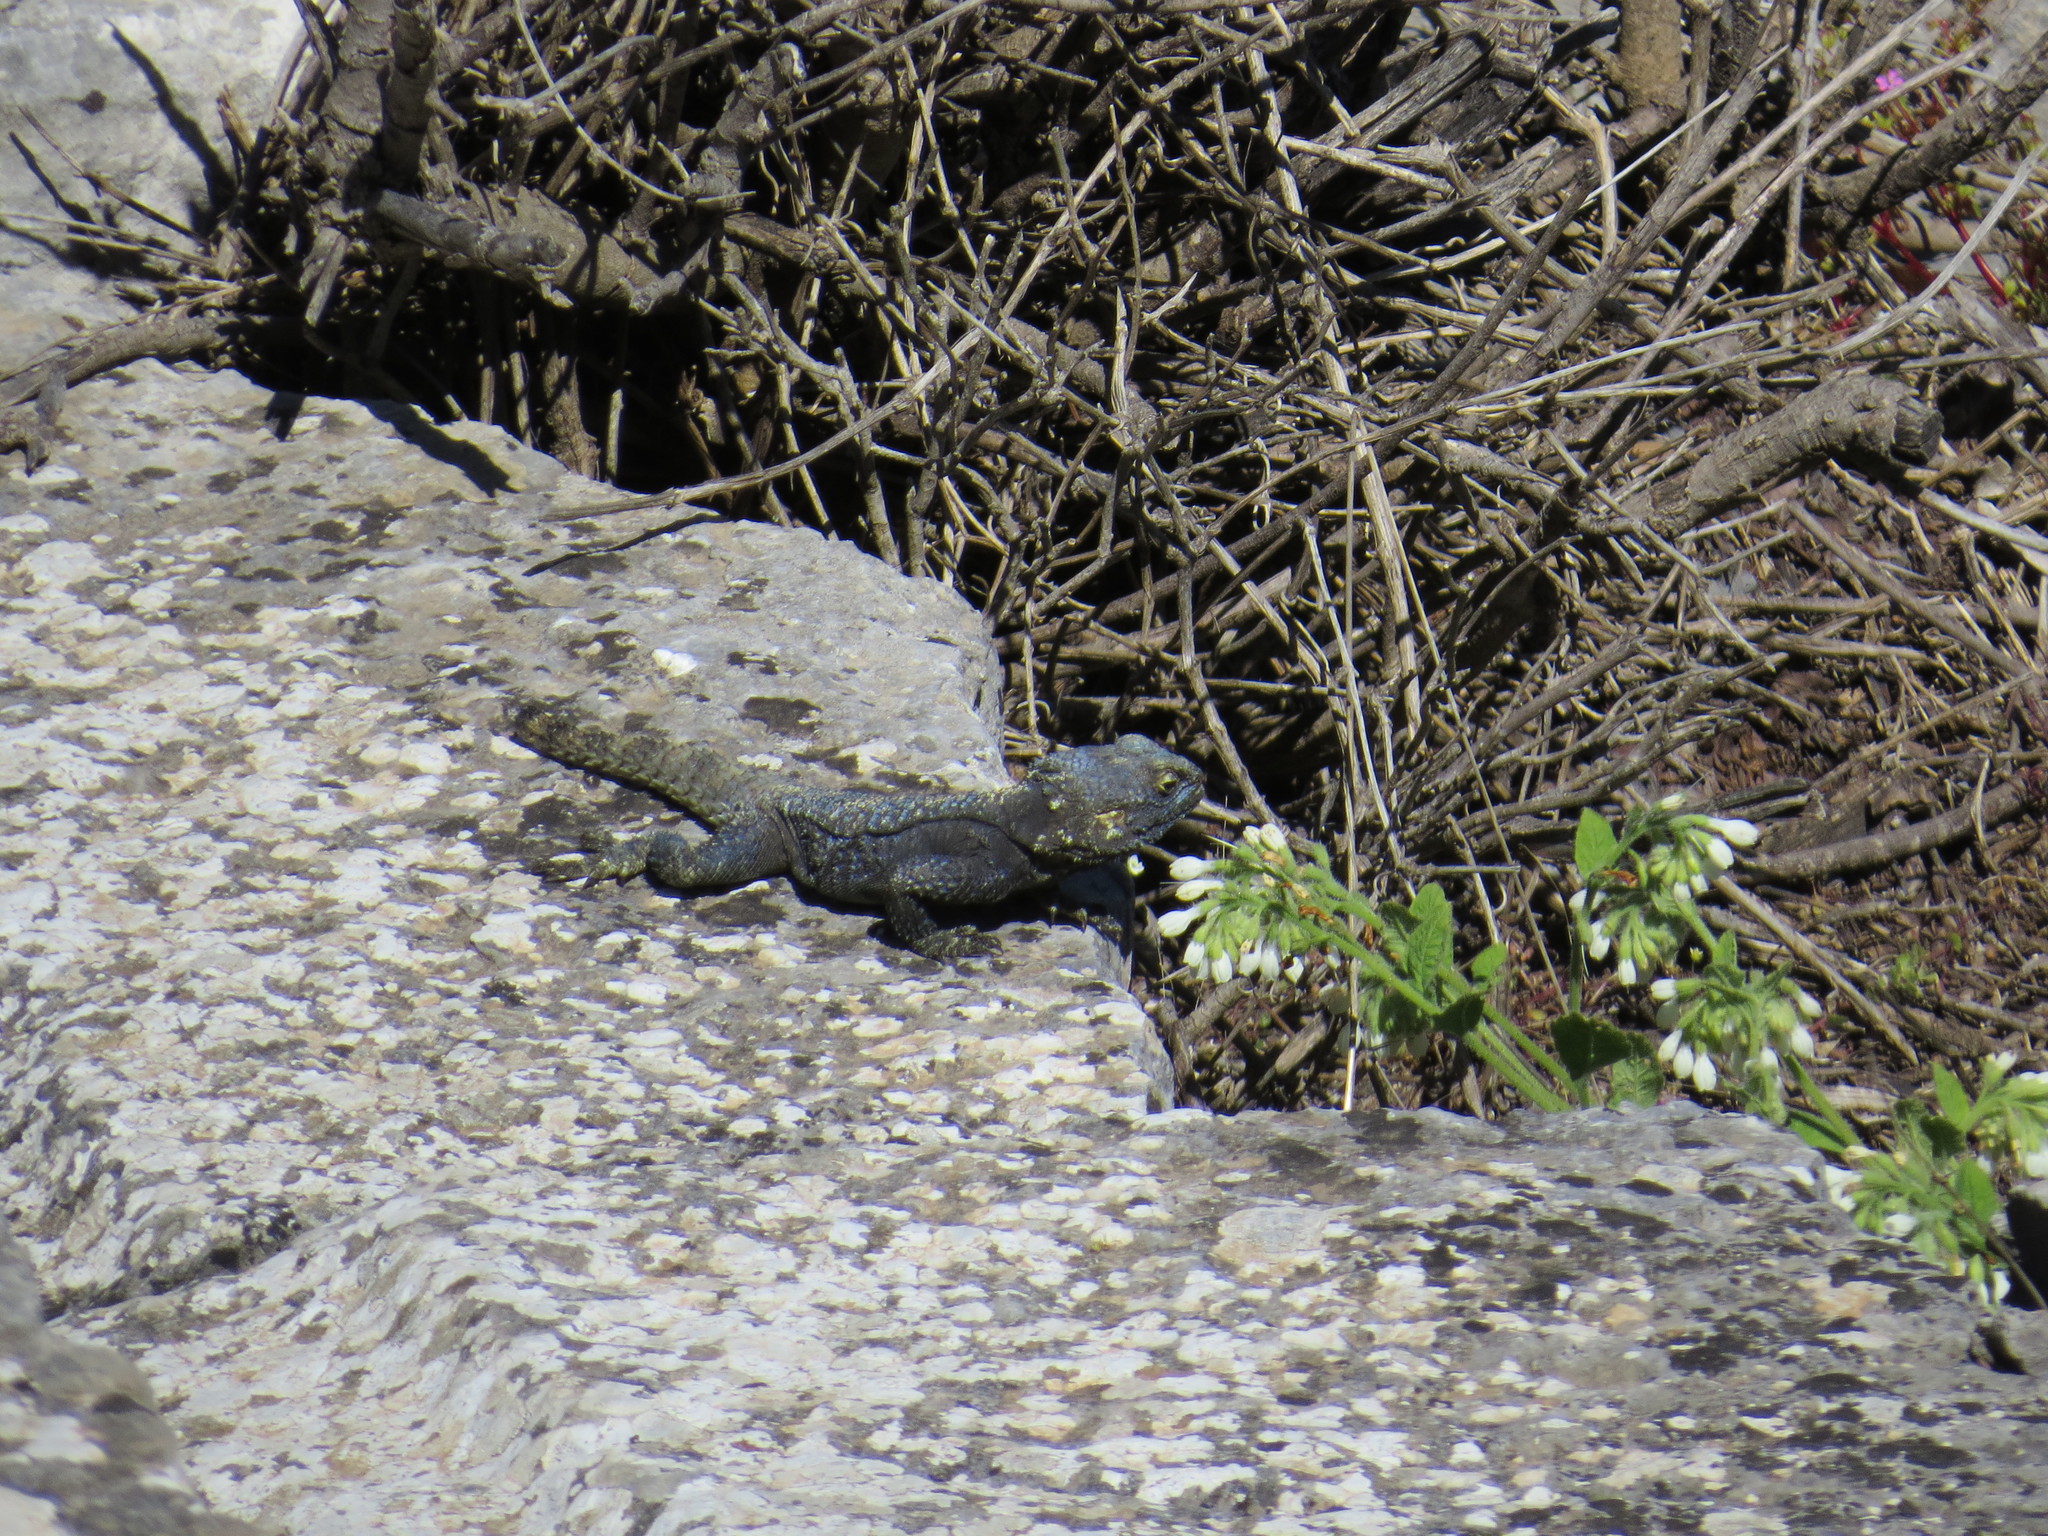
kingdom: Animalia
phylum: Chordata
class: Squamata
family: Agamidae
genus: Stellagama
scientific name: Stellagama stellio
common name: Starred agama
